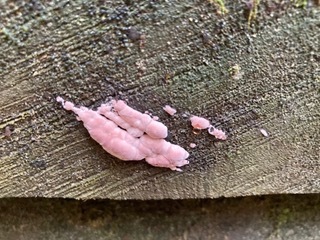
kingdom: Fungi
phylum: Basidiomycota
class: Agaricomycetes
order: Polyporales
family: Fomitopsidaceae
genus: Rhodofomes
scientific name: Rhodofomes cajanderi
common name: Rosy conk
